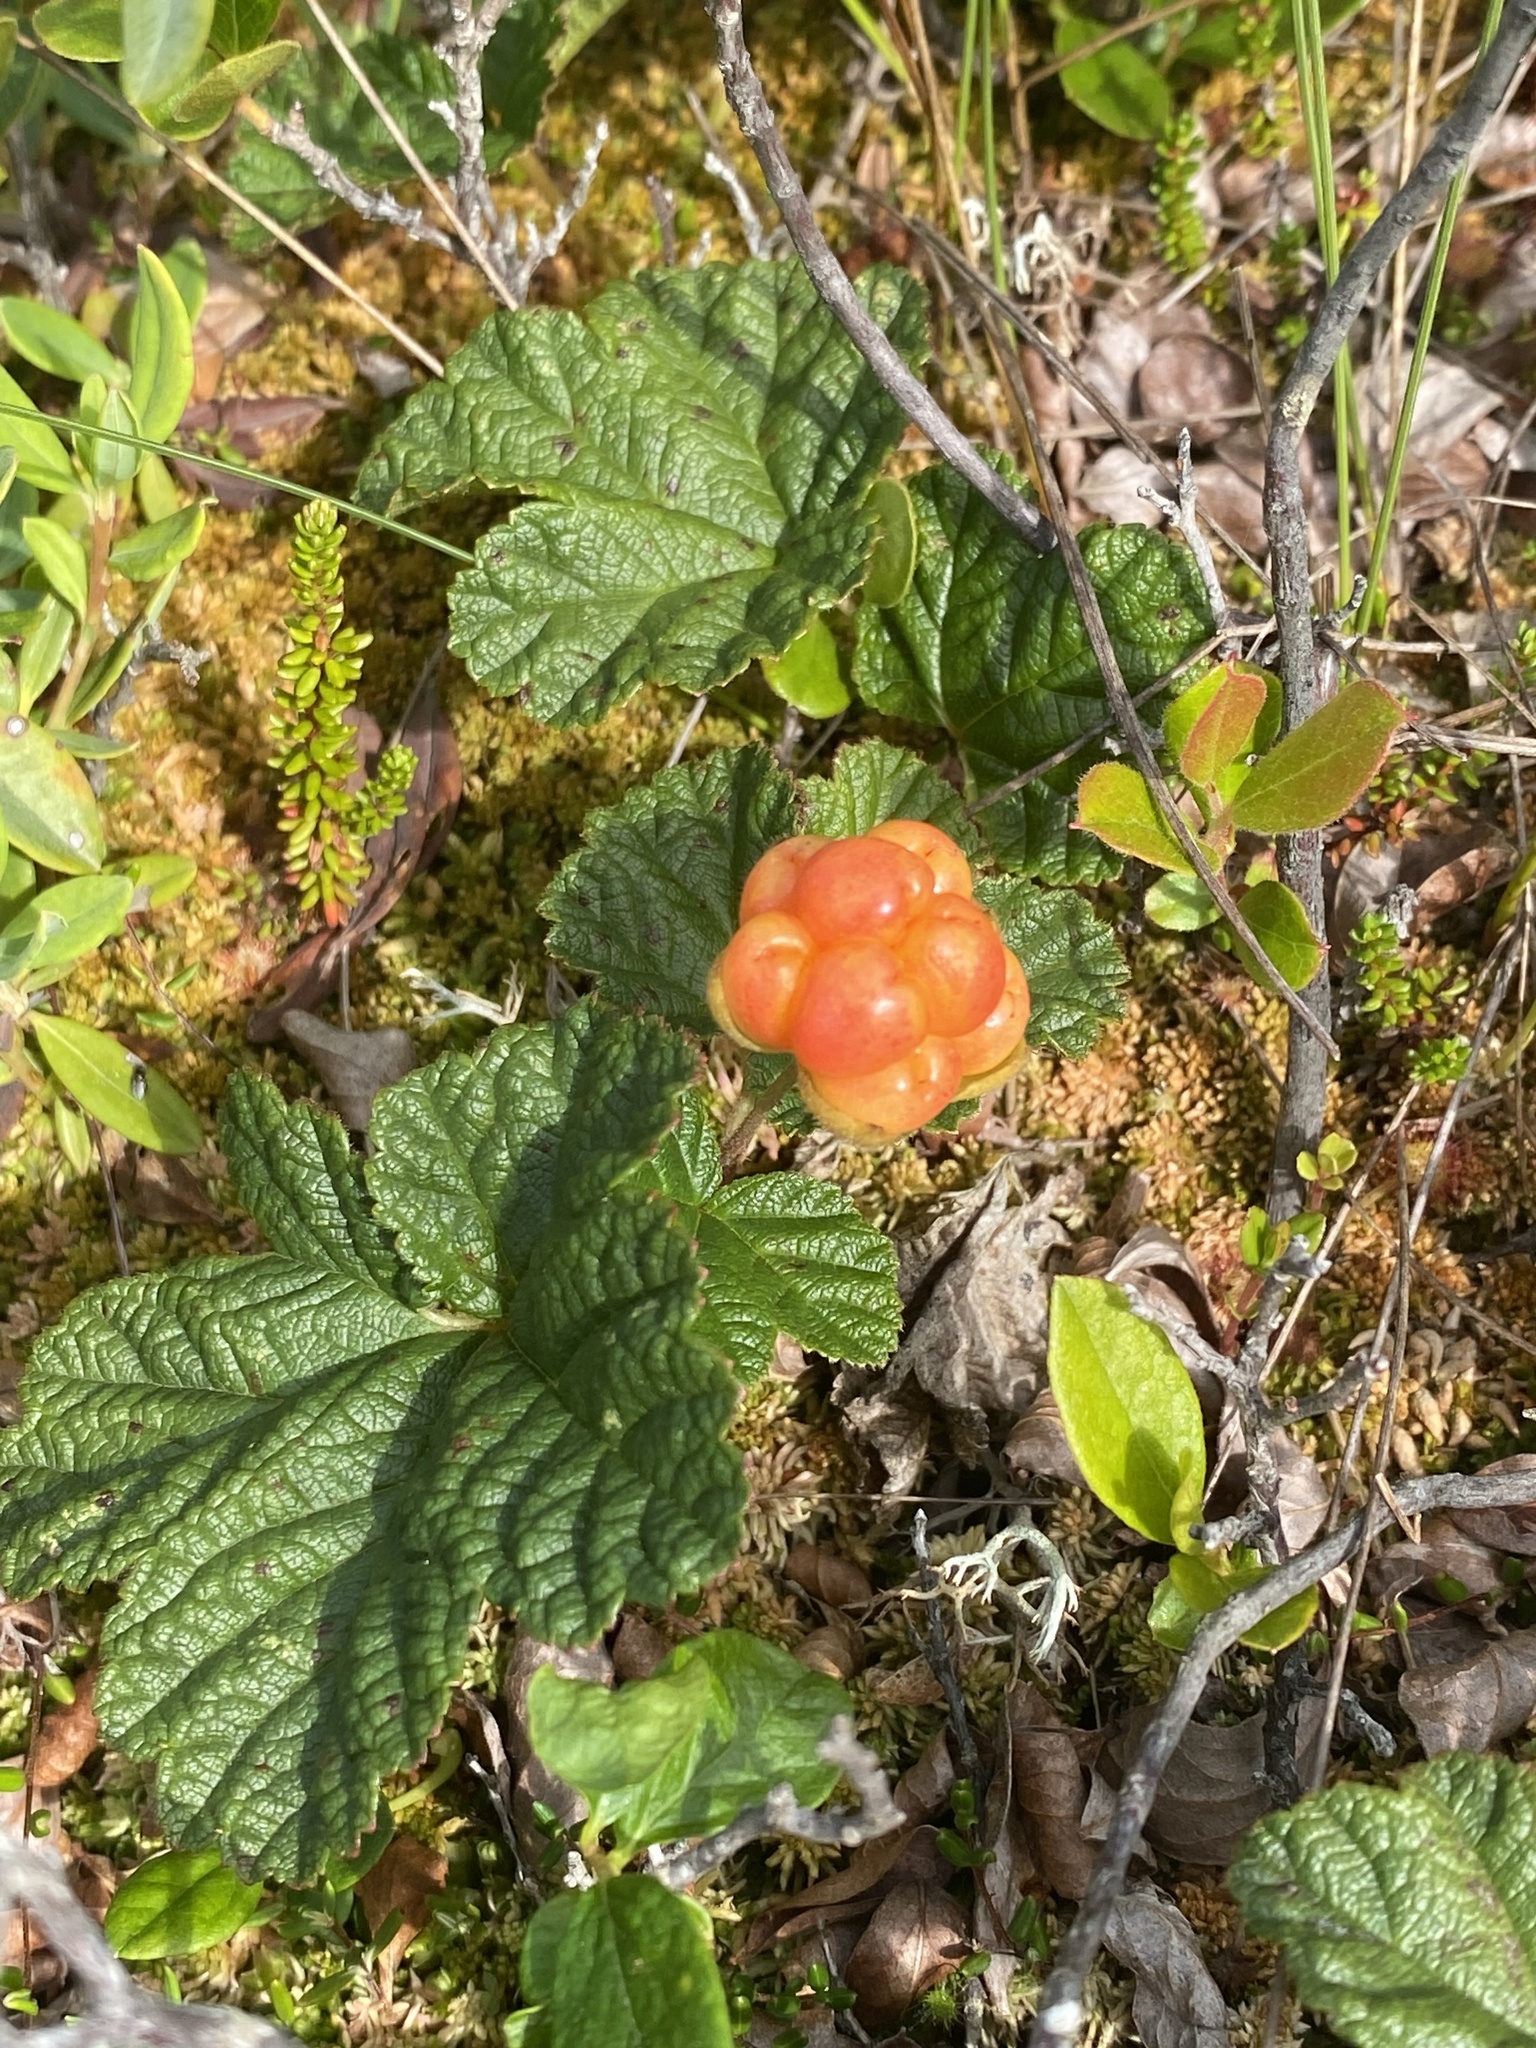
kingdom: Plantae
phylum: Tracheophyta
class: Magnoliopsida
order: Rosales
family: Rosaceae
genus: Rubus
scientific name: Rubus chamaemorus
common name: Cloudberry
